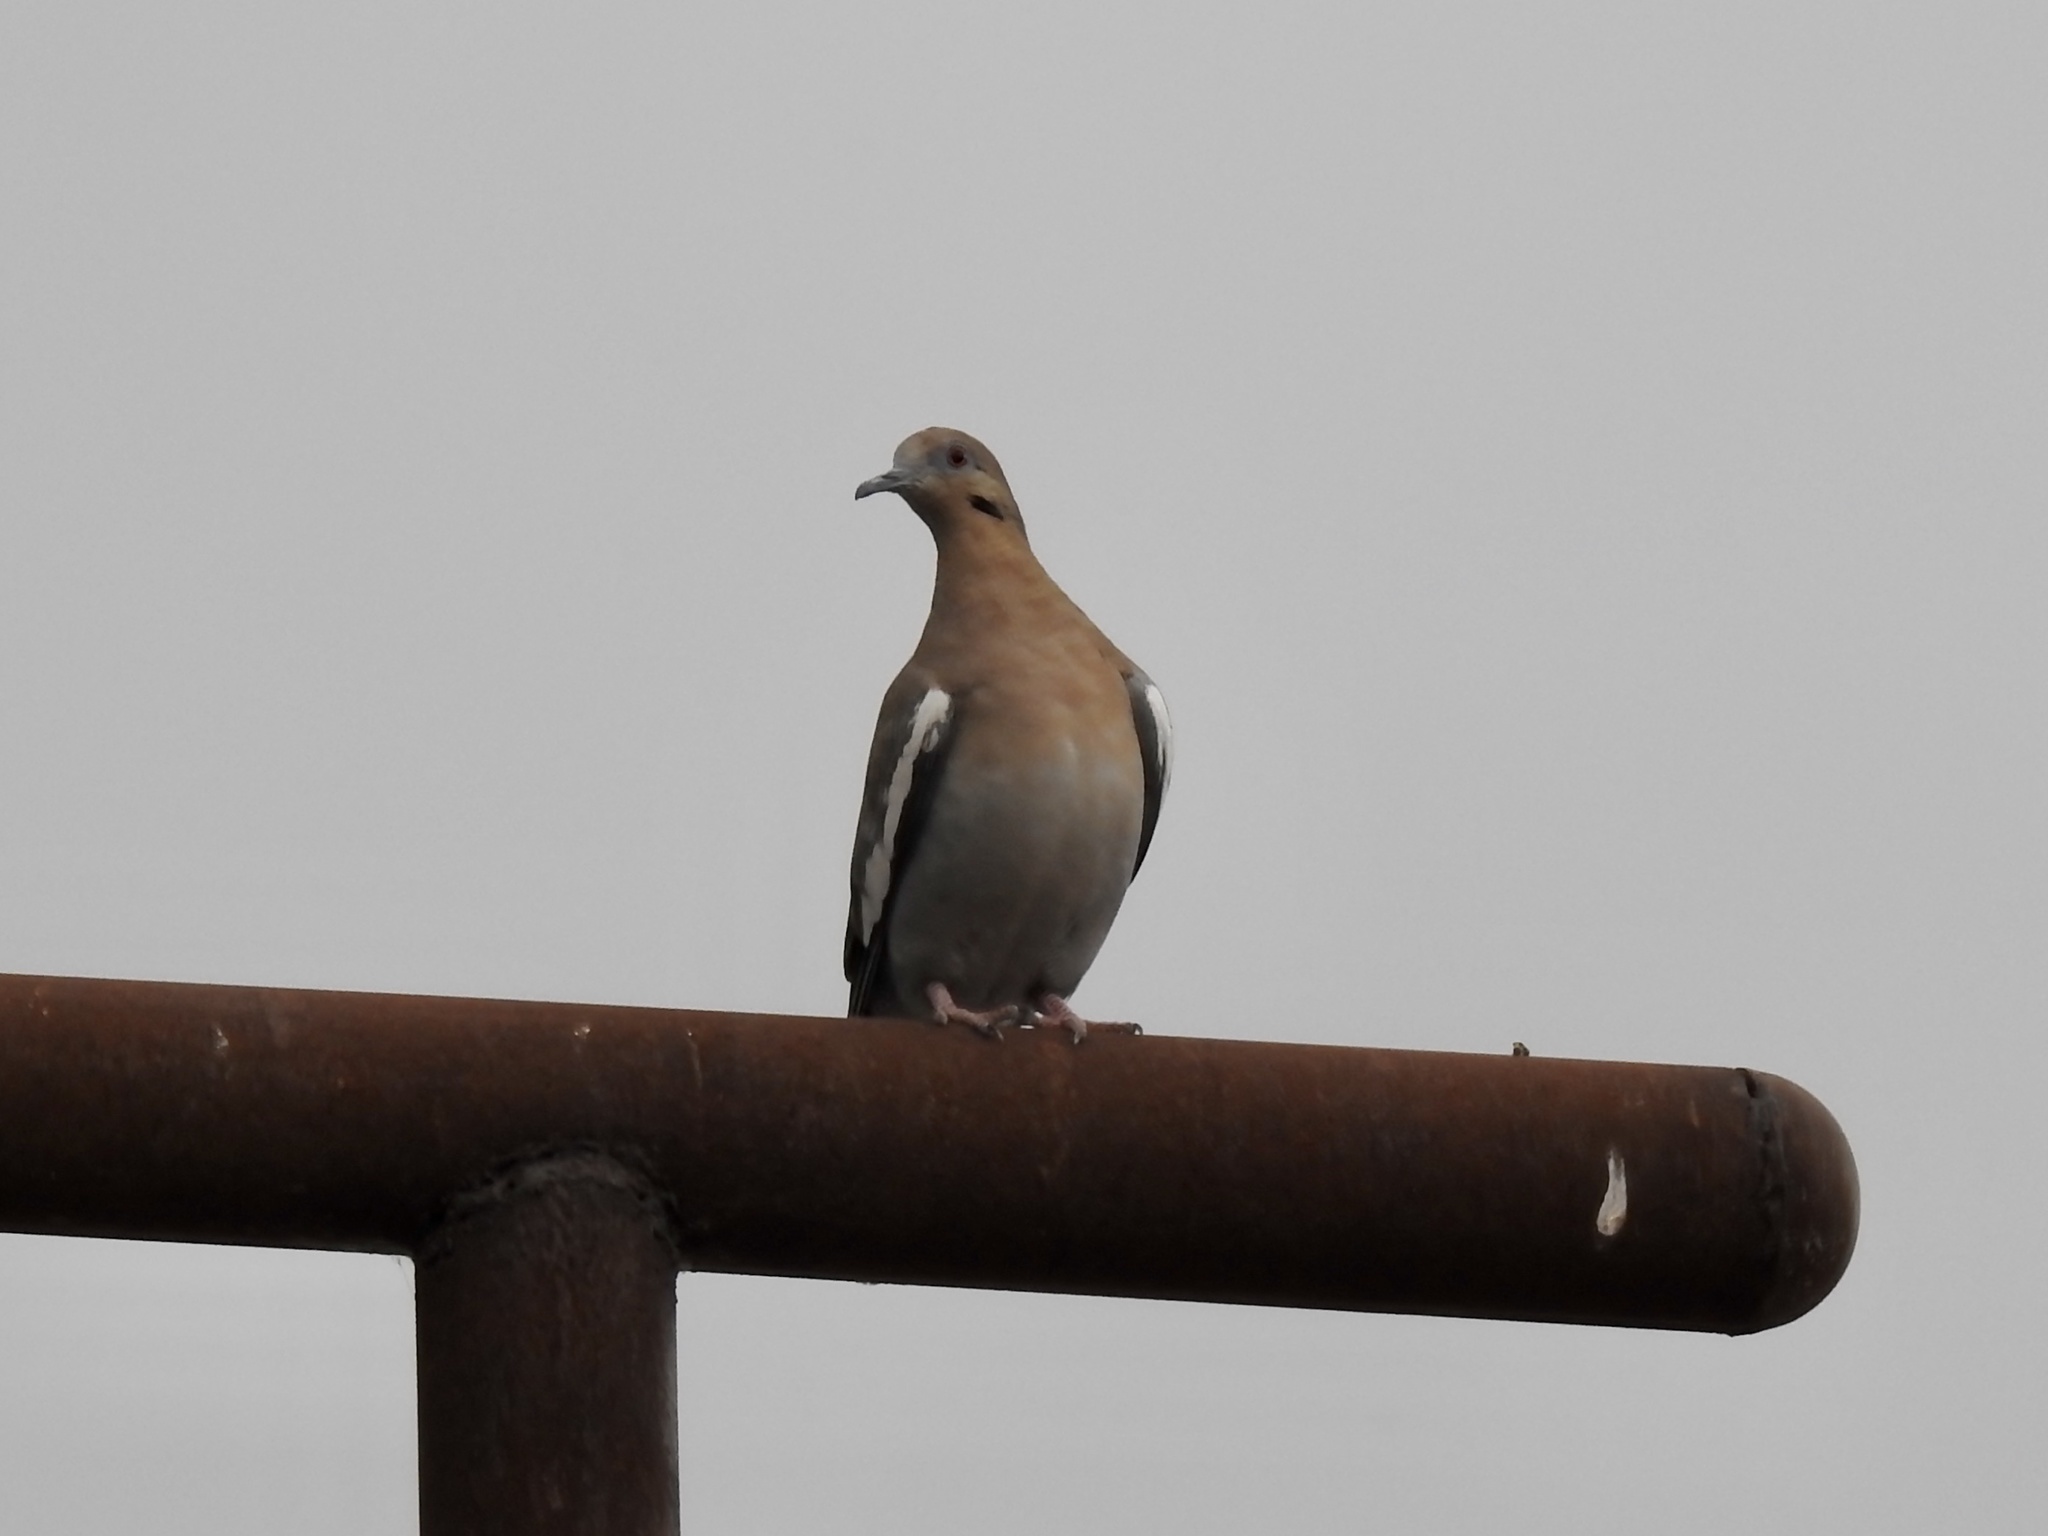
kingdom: Animalia
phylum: Chordata
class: Aves
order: Columbiformes
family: Columbidae
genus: Zenaida
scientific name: Zenaida asiatica
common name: White-winged dove
